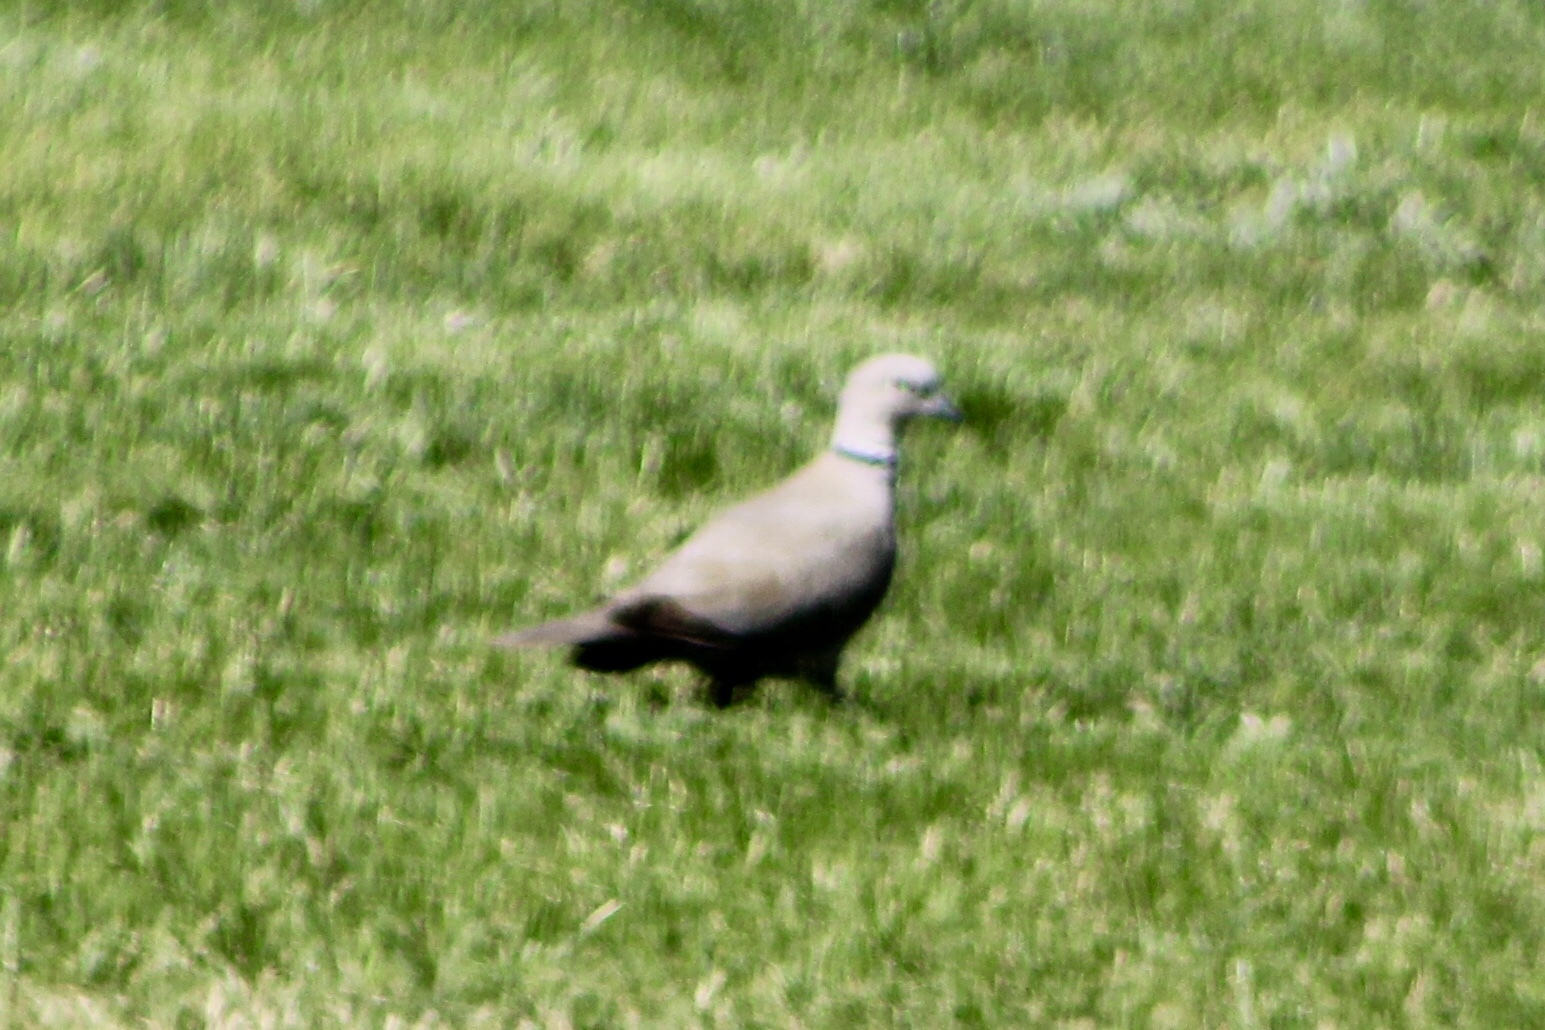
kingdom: Animalia
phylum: Chordata
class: Aves
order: Columbiformes
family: Columbidae
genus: Streptopelia
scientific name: Streptopelia decaocto
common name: Eurasian collared dove
